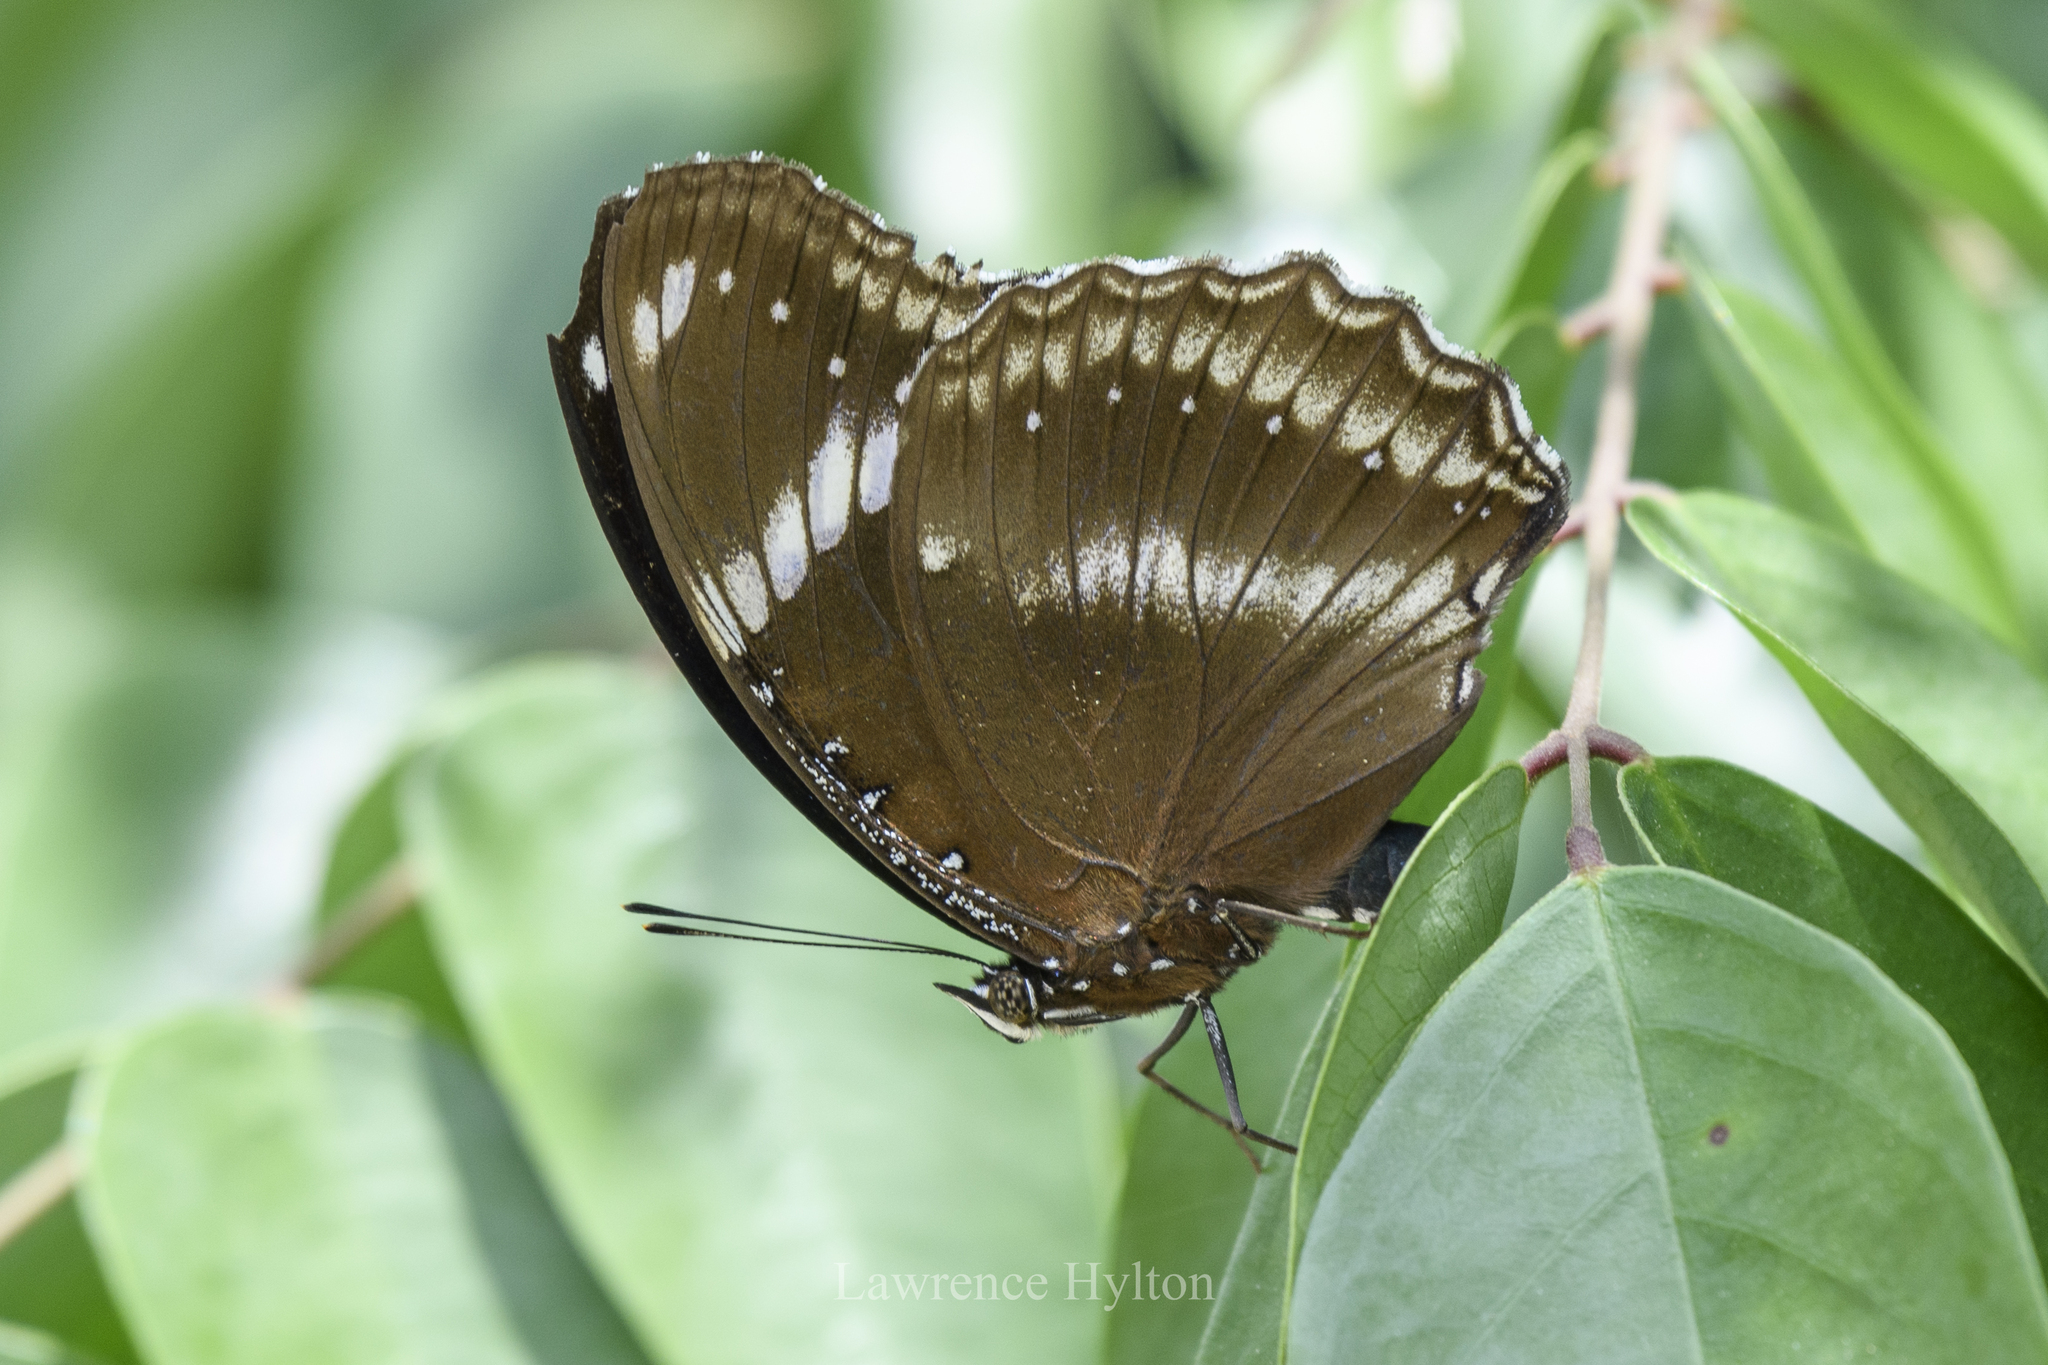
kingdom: Animalia
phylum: Arthropoda
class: Insecta
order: Lepidoptera
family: Nymphalidae
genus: Hypolimnas
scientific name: Hypolimnas bolina
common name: Great eggfly
